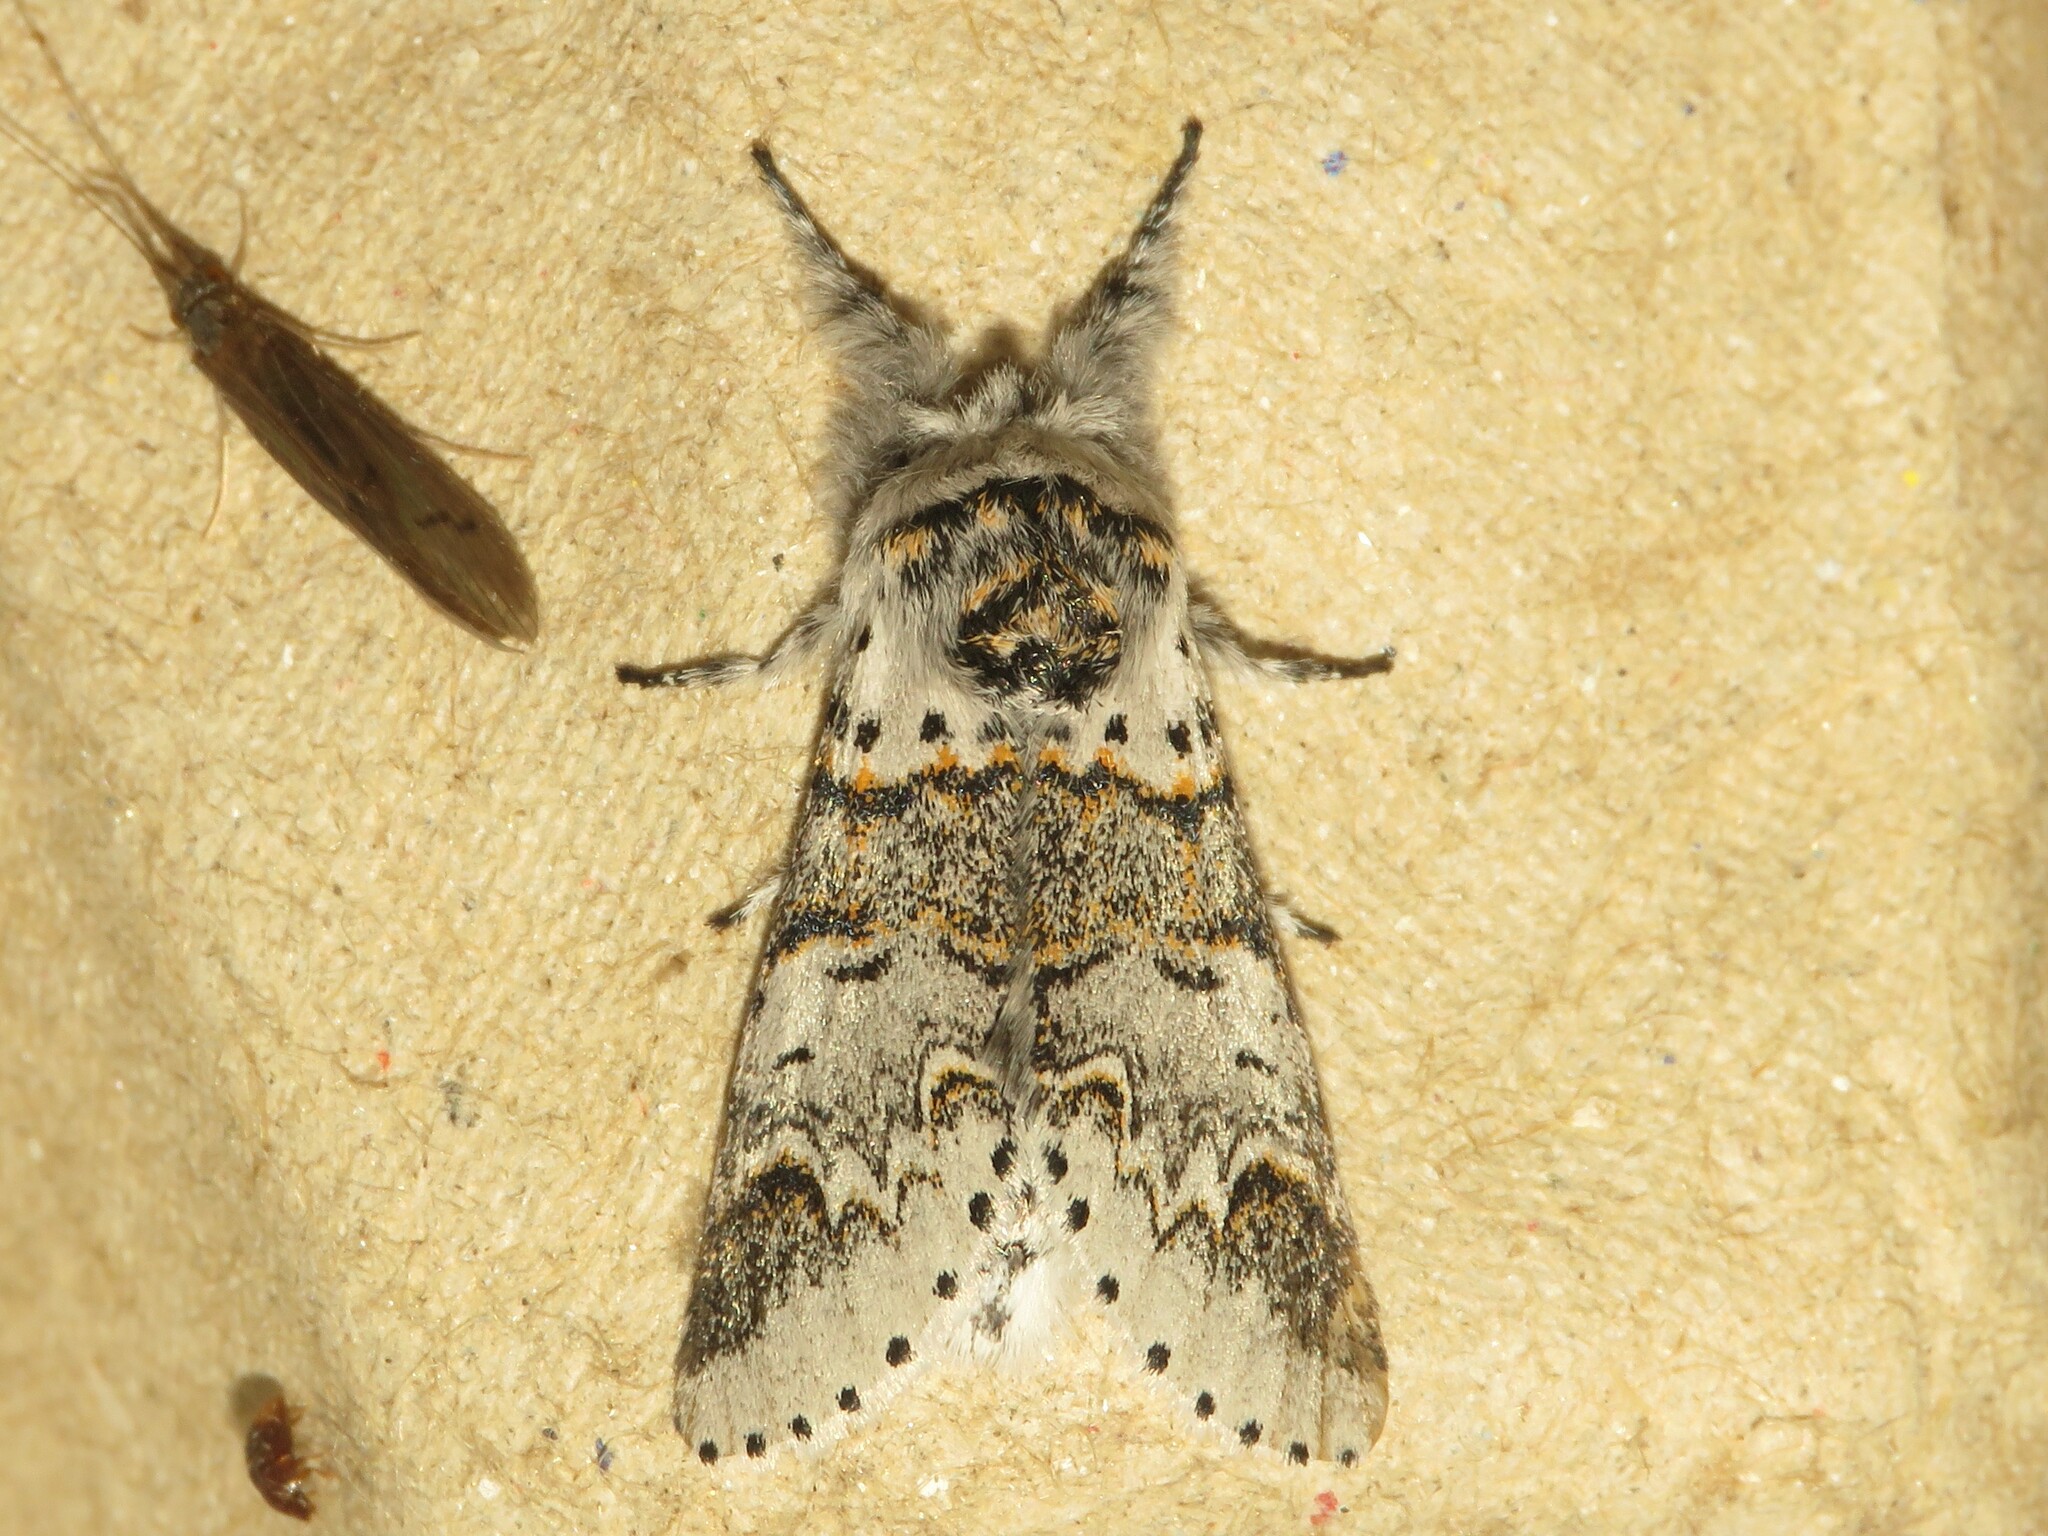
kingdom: Animalia
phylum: Arthropoda
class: Insecta
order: Lepidoptera
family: Notodontidae
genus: Furcula
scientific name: Furcula occidentalis
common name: Western furcula moth
